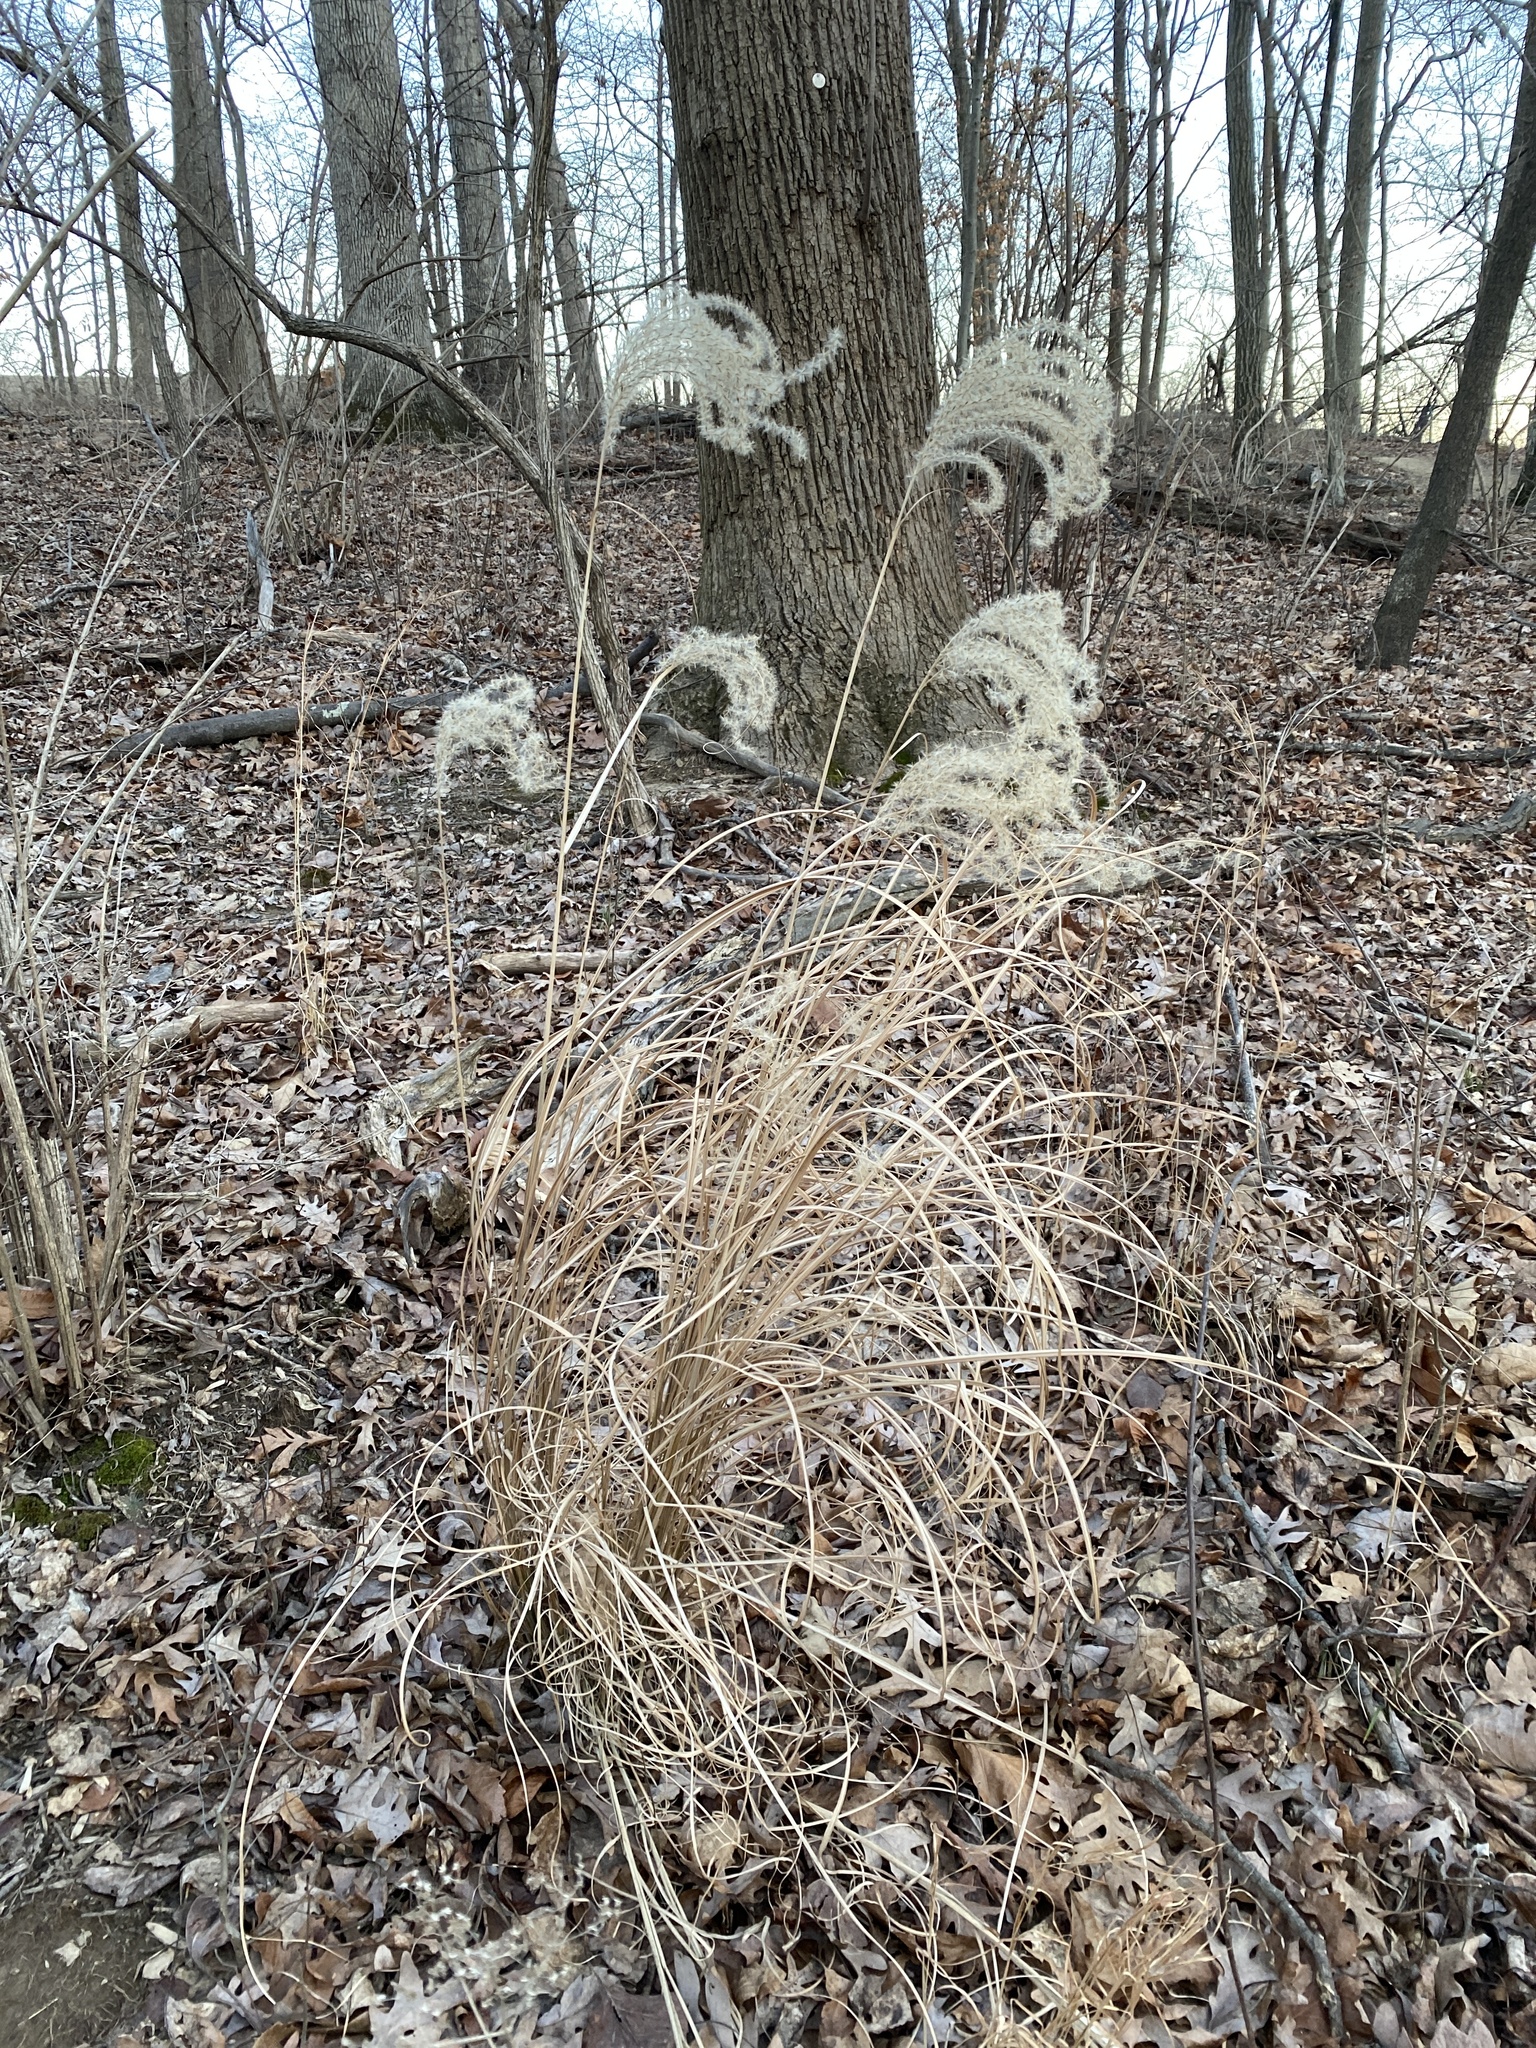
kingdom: Plantae
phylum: Tracheophyta
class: Liliopsida
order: Poales
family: Poaceae
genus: Miscanthus
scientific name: Miscanthus sinensis
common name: Chinese silvergrass
